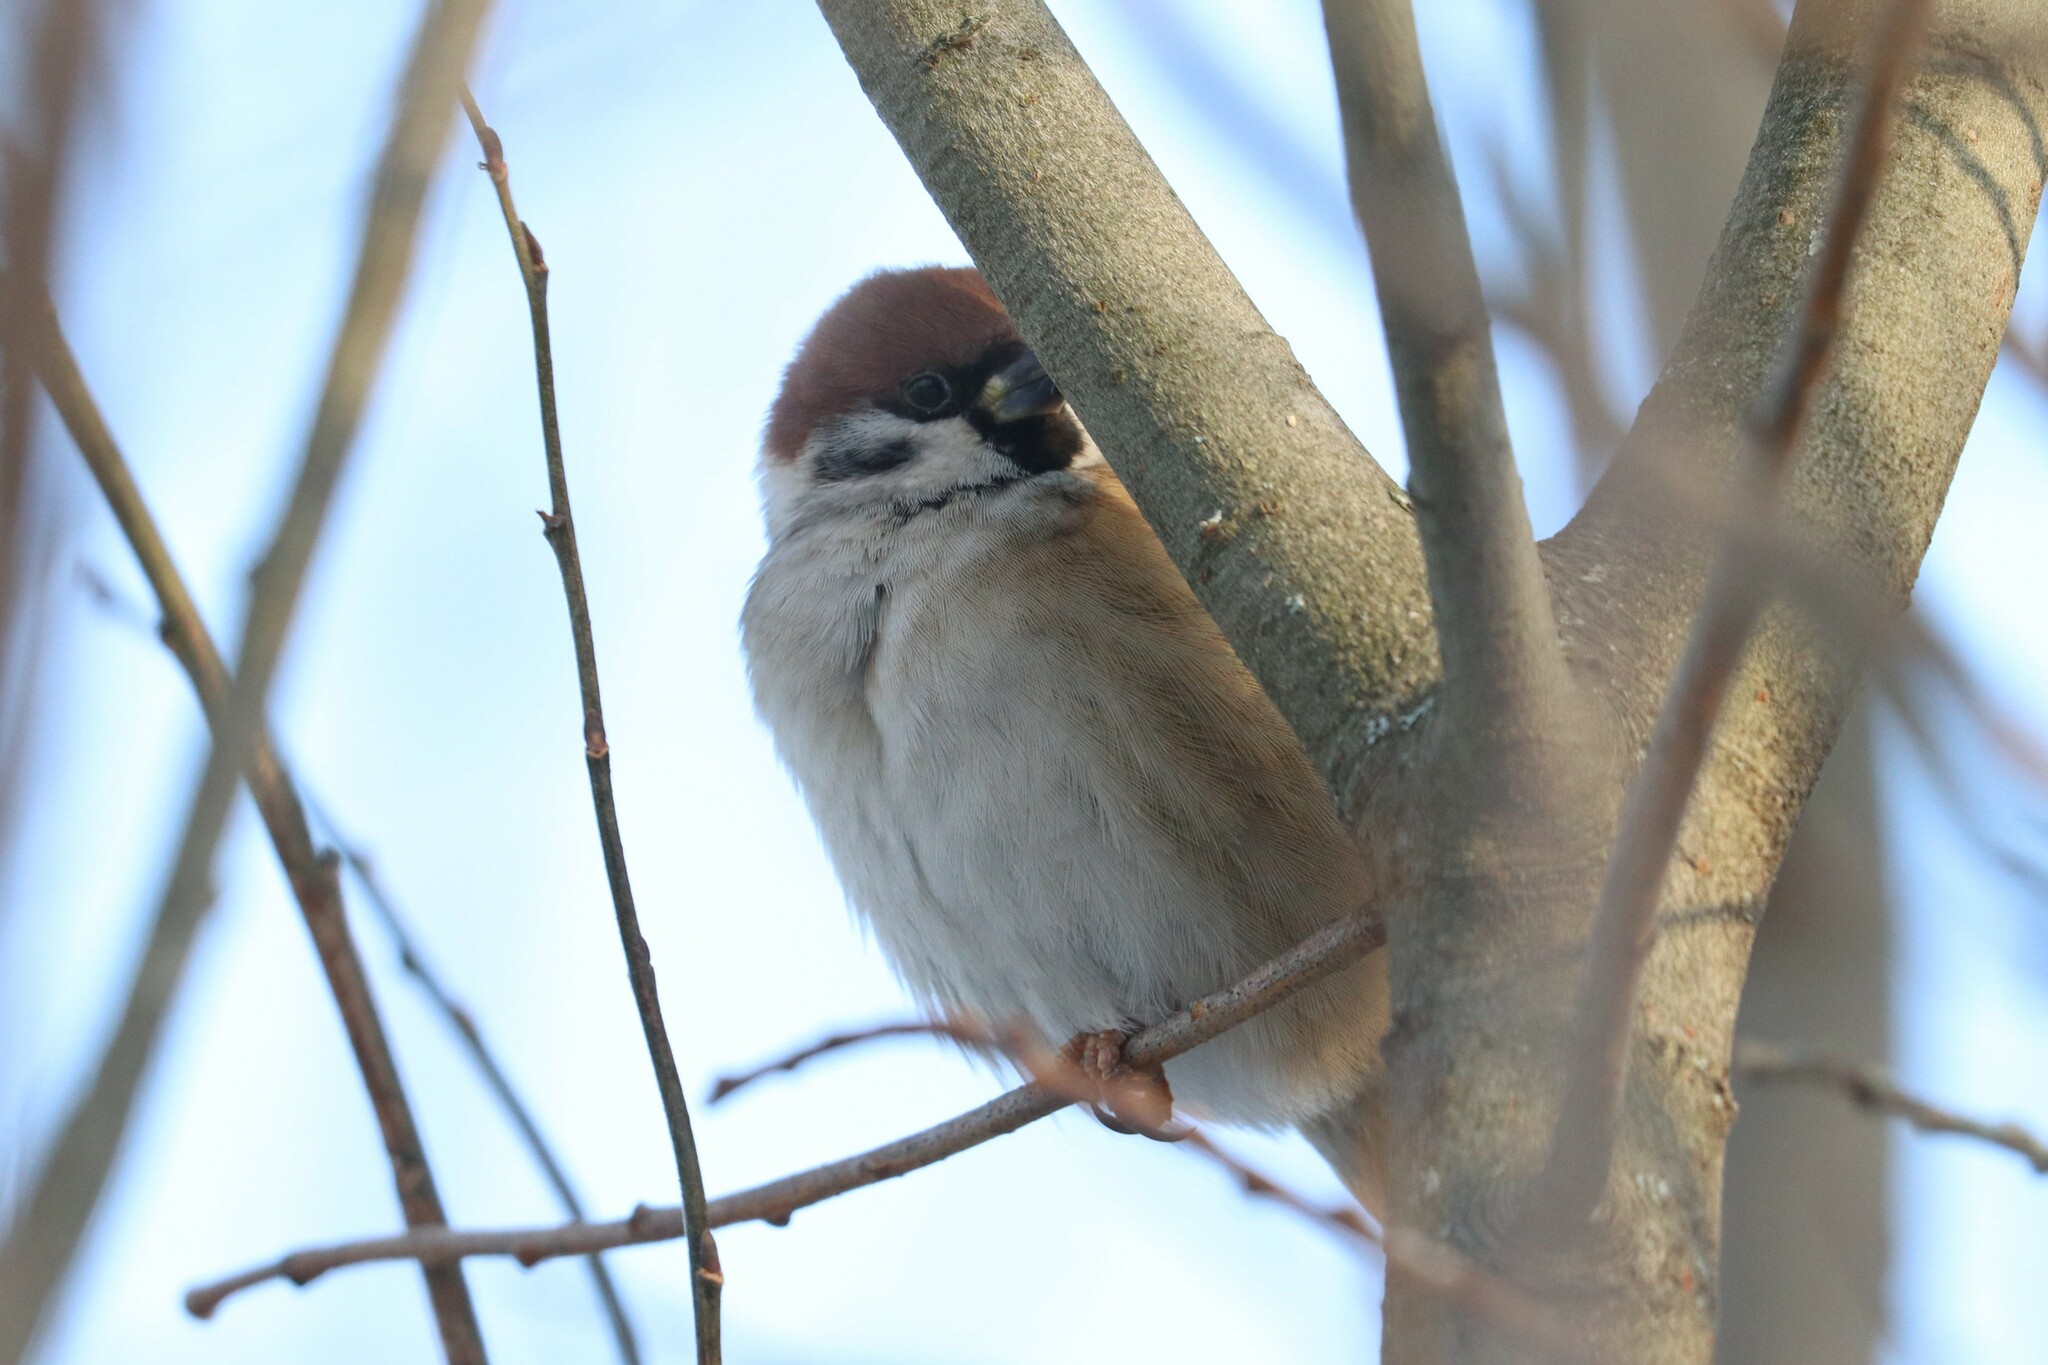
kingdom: Animalia
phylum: Chordata
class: Aves
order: Passeriformes
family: Passeridae
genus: Passer
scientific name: Passer montanus
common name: Eurasian tree sparrow
